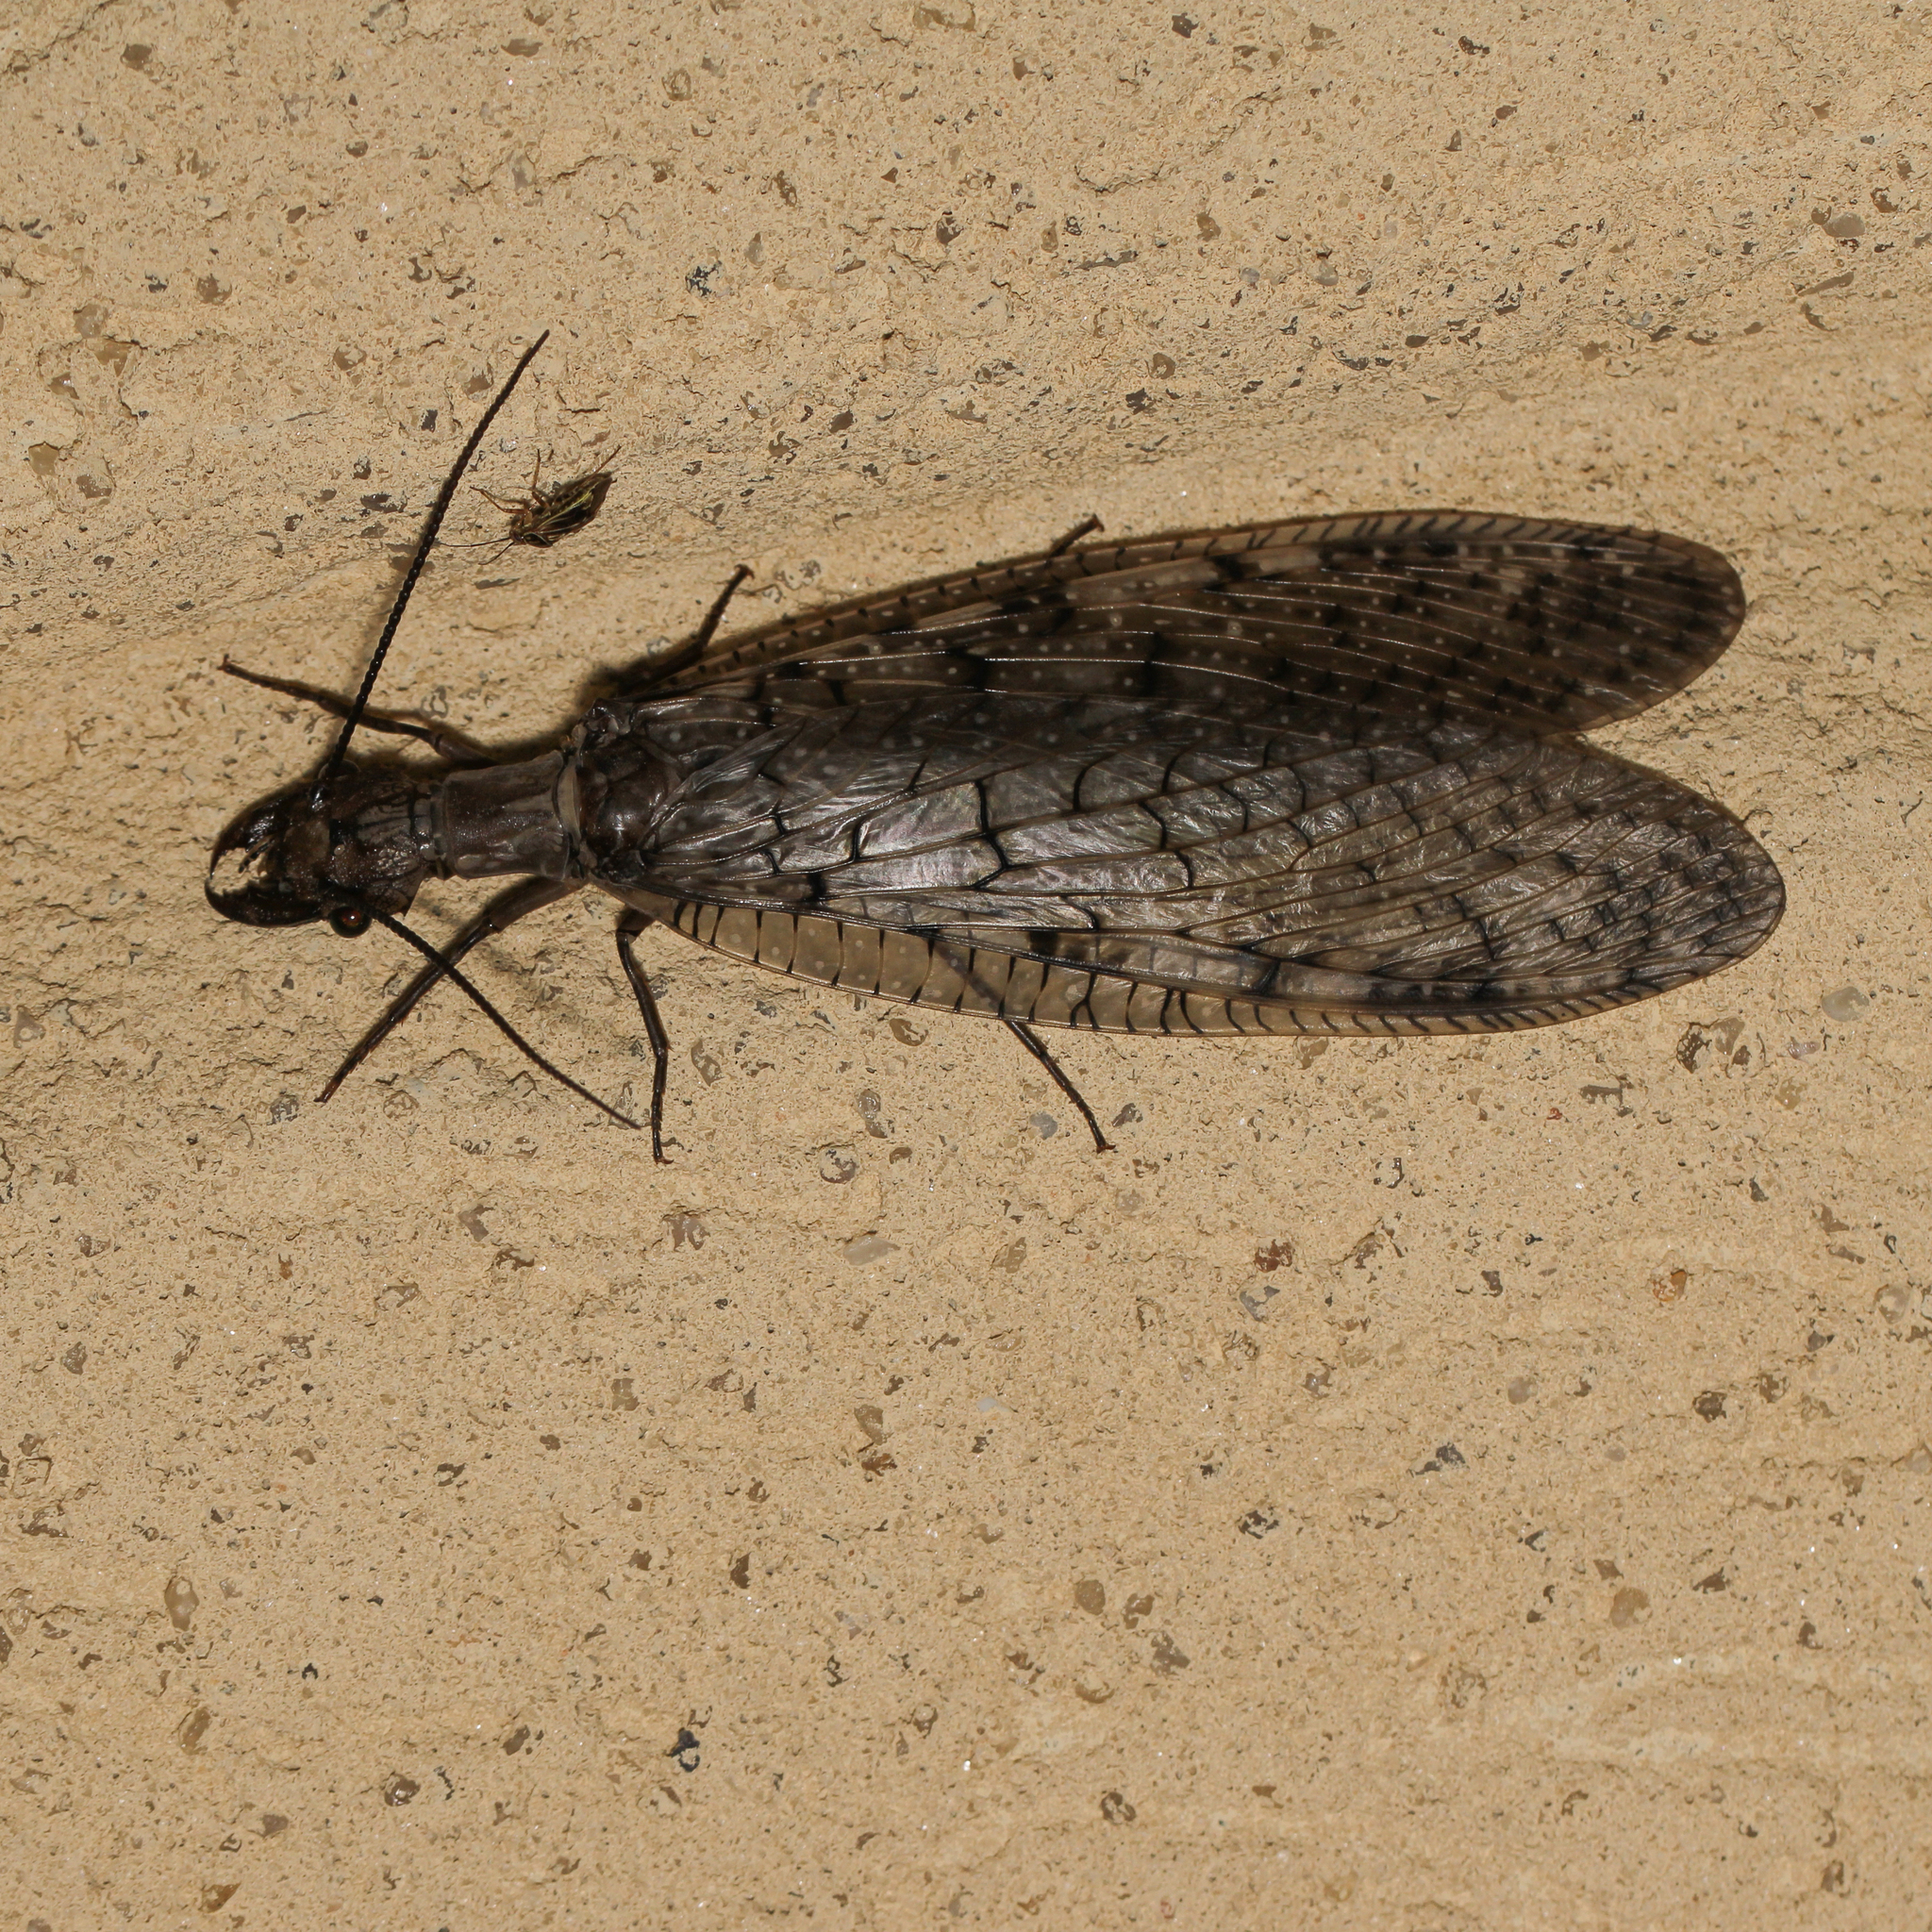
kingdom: Animalia
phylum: Arthropoda
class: Insecta
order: Megaloptera
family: Corydalidae
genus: Corydalus
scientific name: Corydalus cornutus
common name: Dobsonfly
